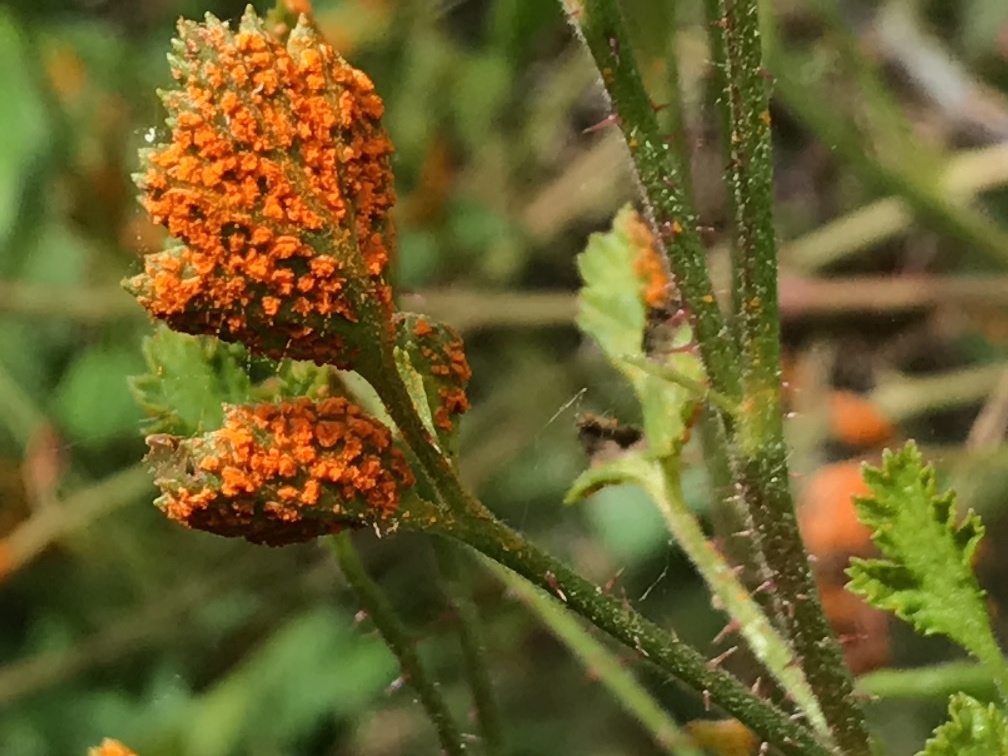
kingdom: Fungi
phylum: Basidiomycota
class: Pucciniomycetes
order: Pucciniales
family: Phragmidiaceae
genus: Arthuriomyces
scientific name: Arthuriomyces peckianus
